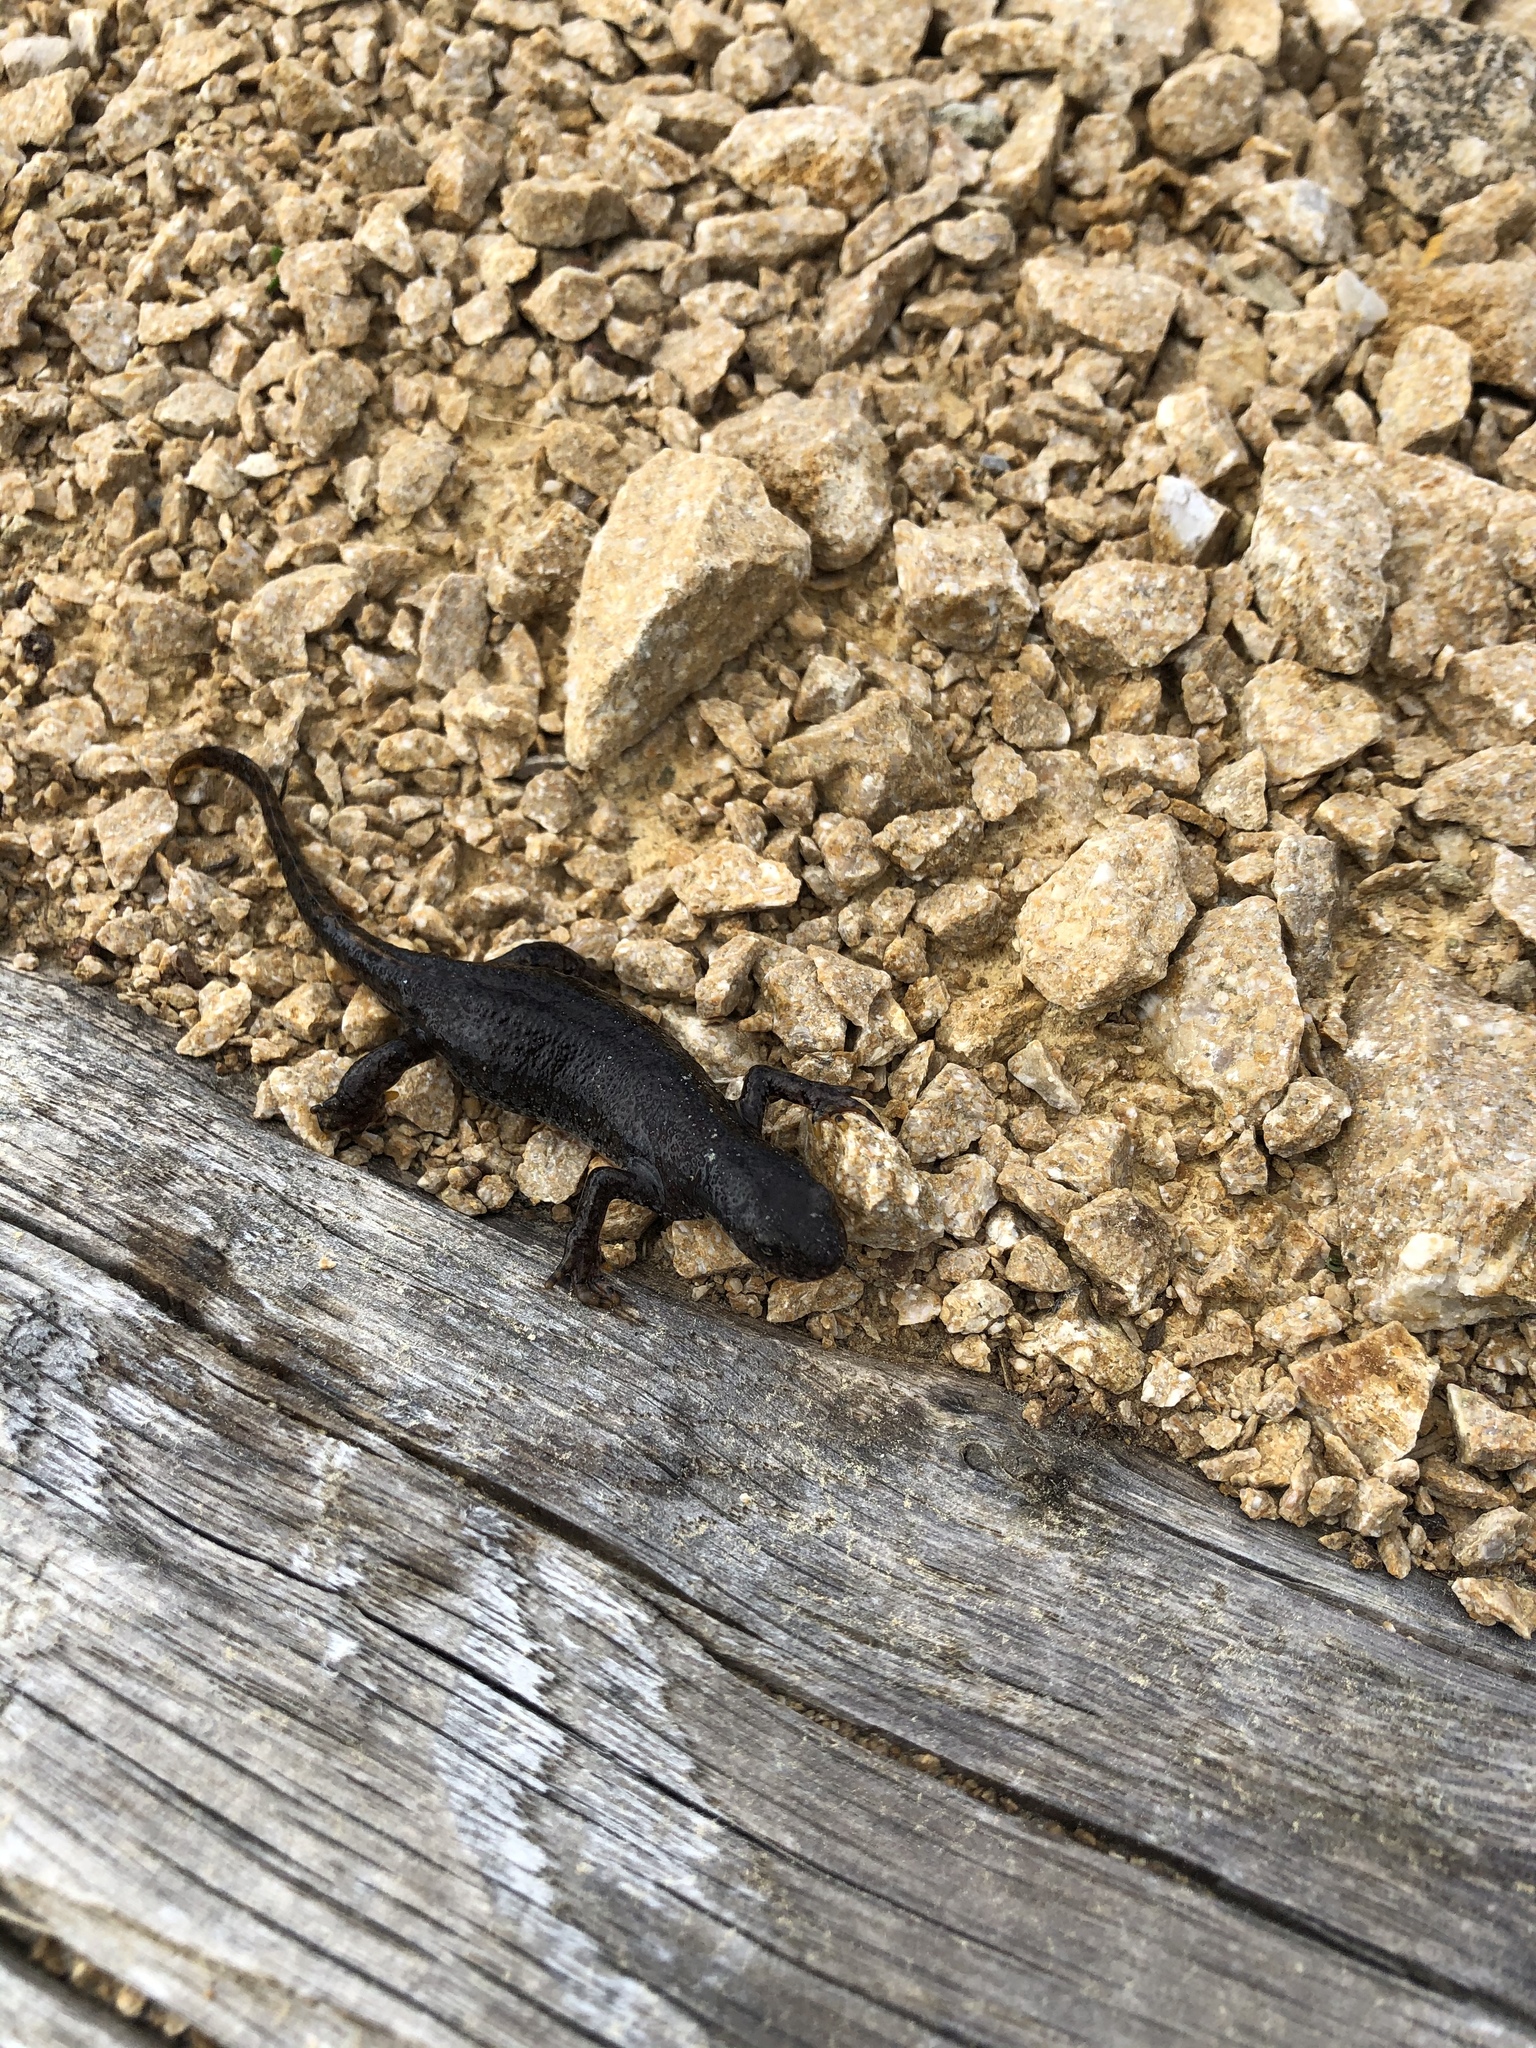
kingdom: Animalia
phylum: Chordata
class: Amphibia
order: Caudata
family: Salamandridae
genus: Ichthyosaura
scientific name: Ichthyosaura alpestris
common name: Alpine newt
